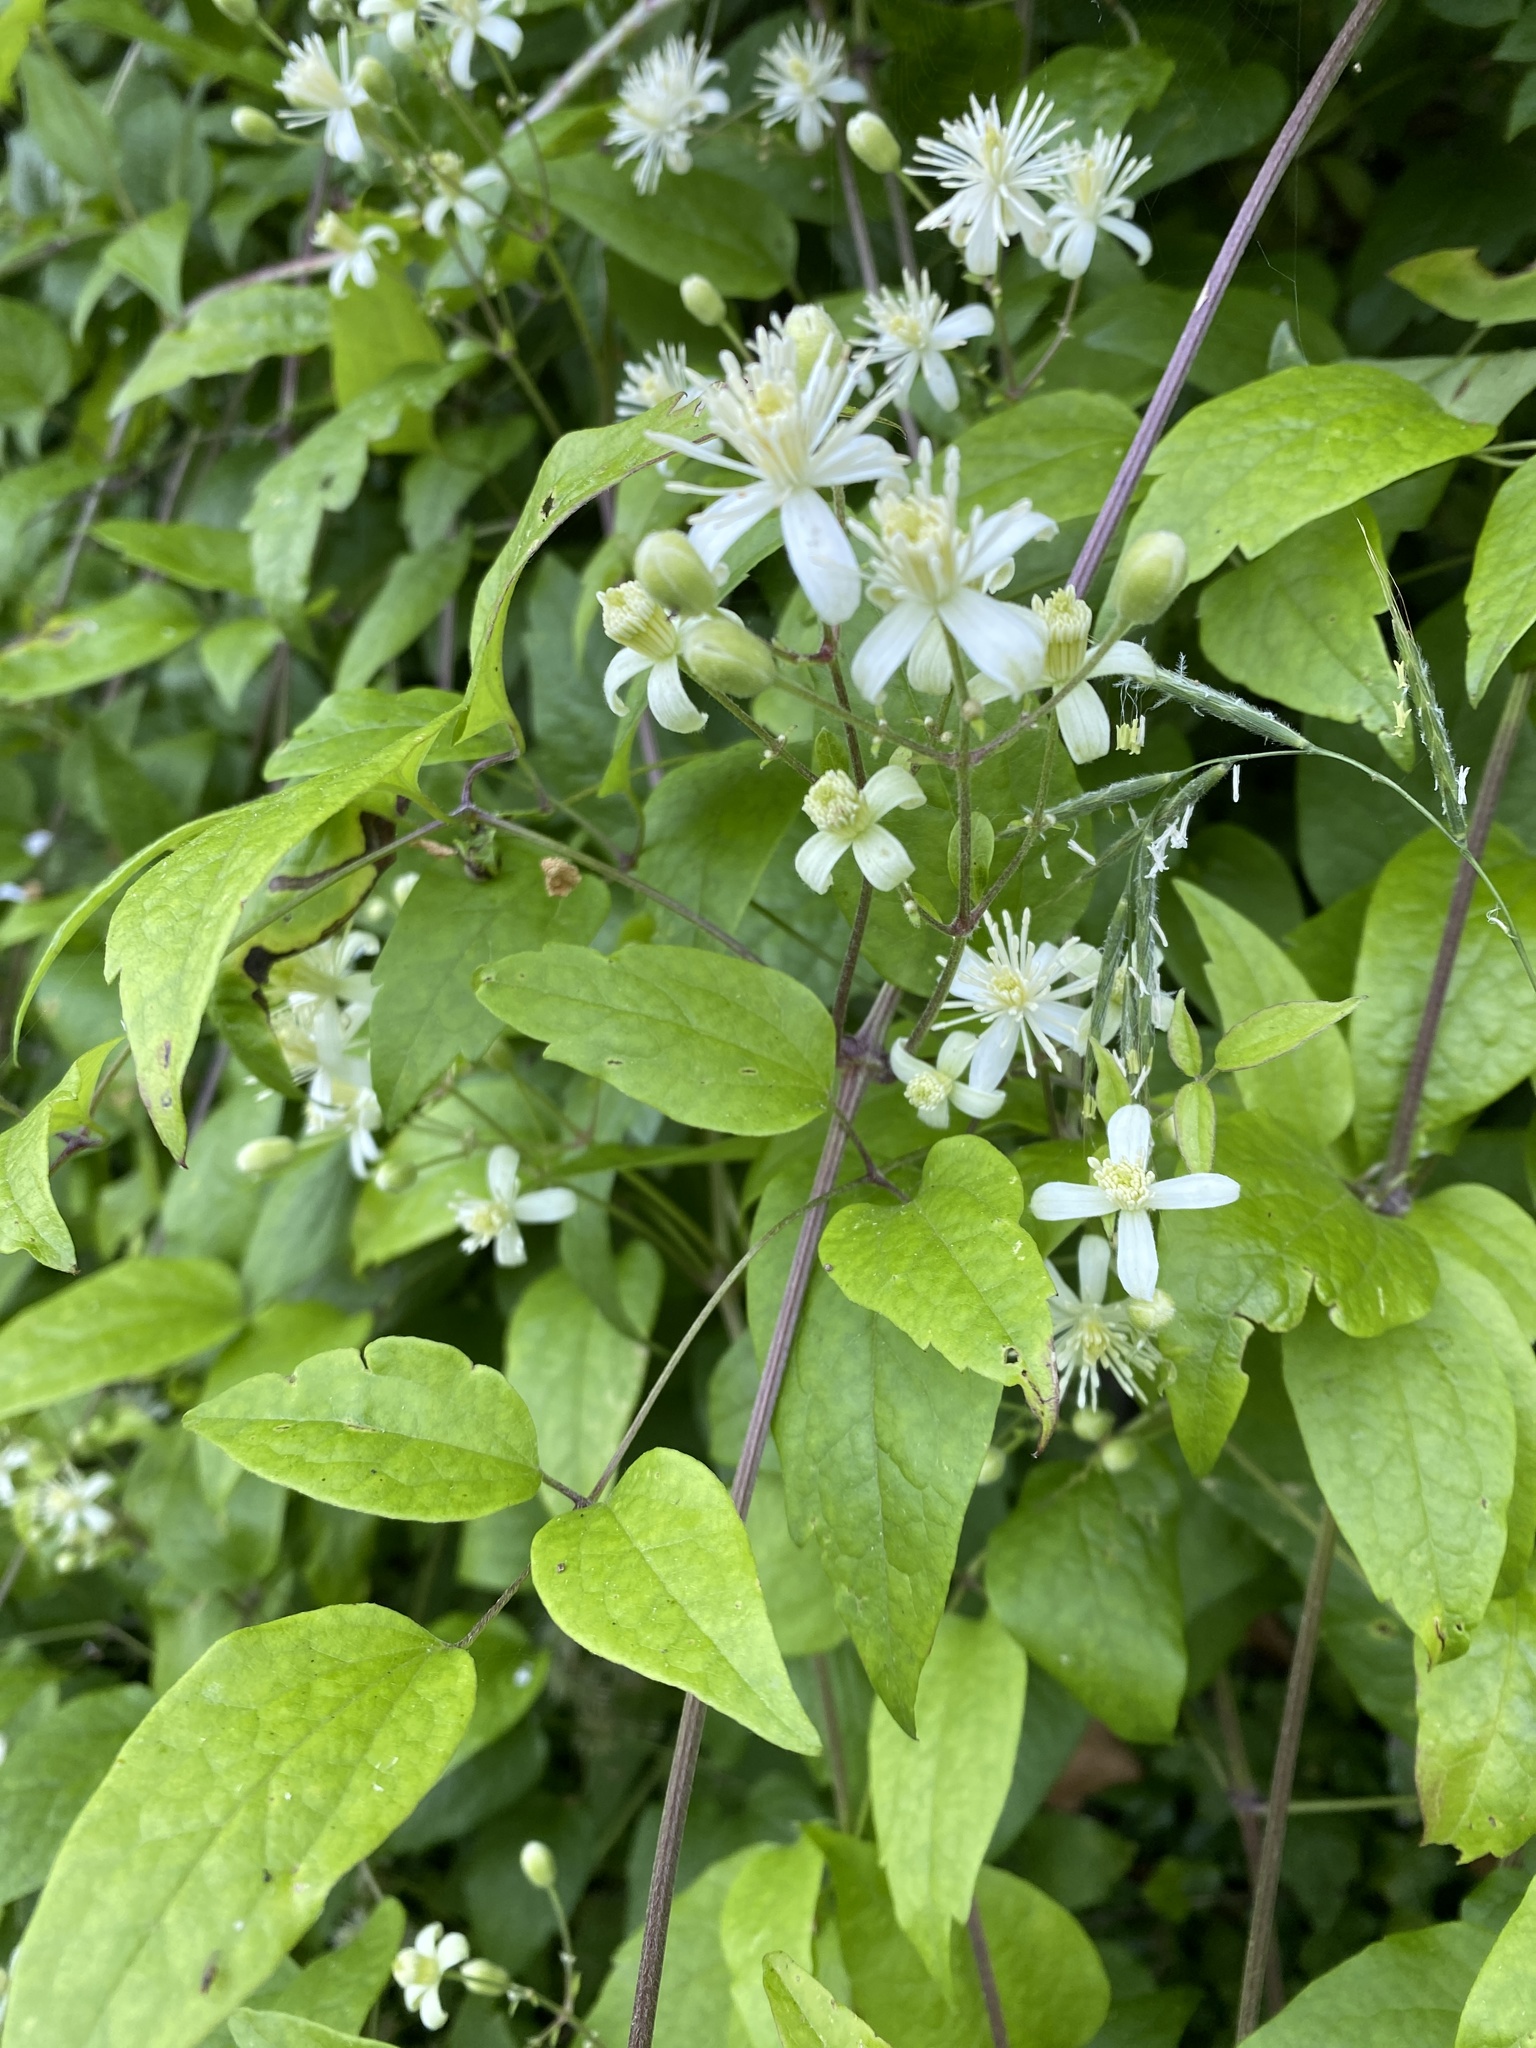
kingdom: Plantae
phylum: Tracheophyta
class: Magnoliopsida
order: Ranunculales
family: Ranunculaceae
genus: Clematis
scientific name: Clematis vitalba
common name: Evergreen clematis
